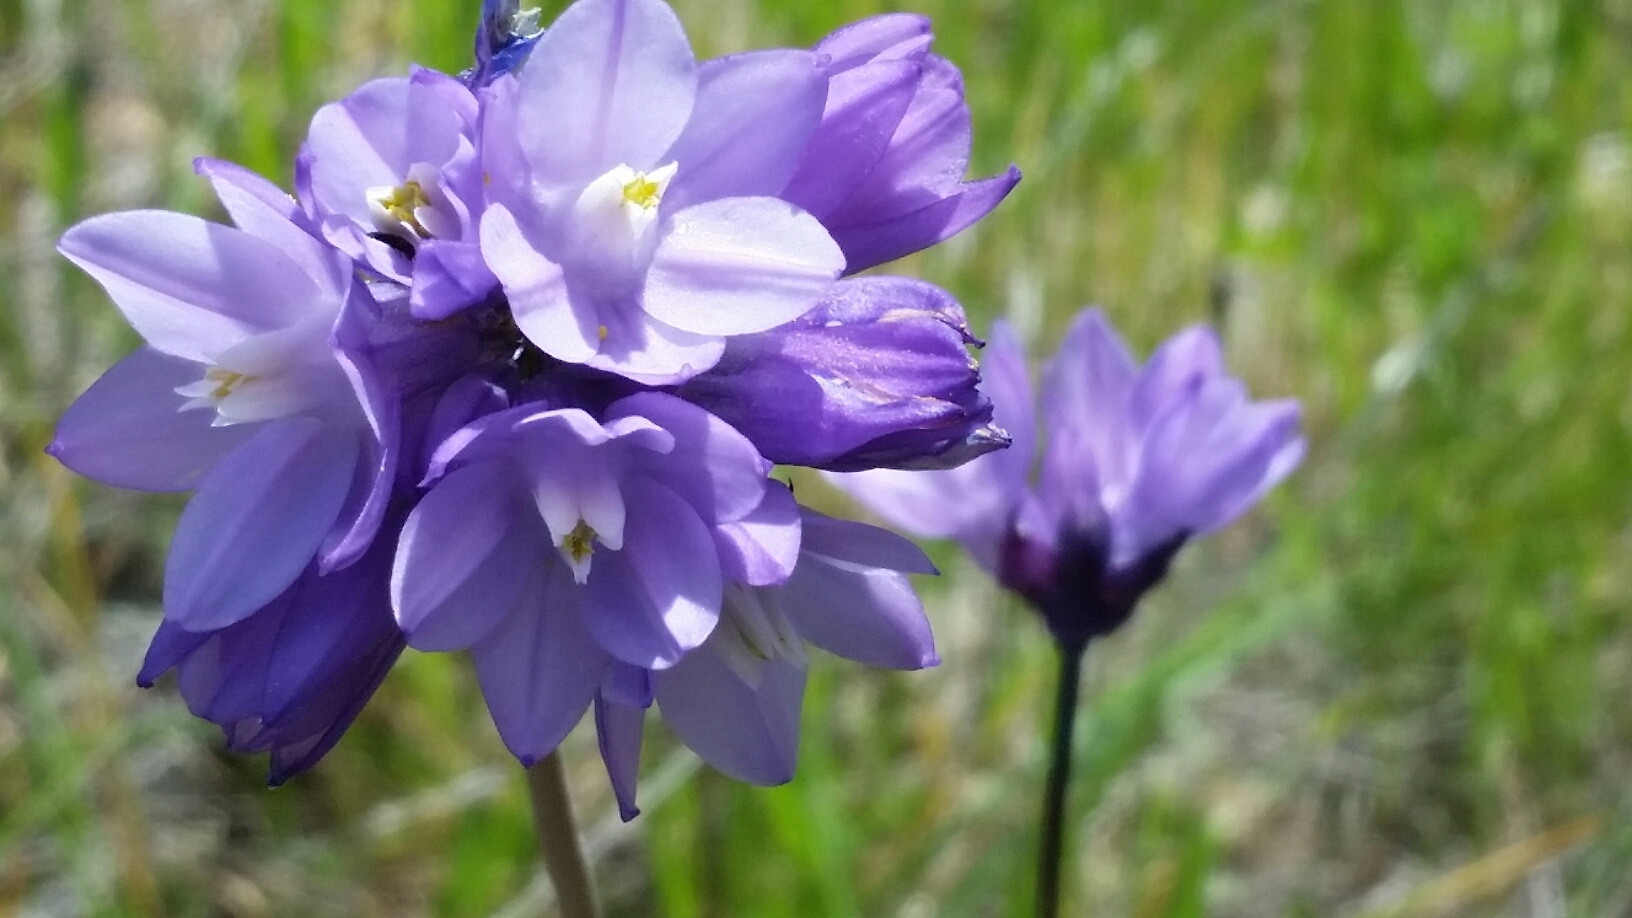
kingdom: Plantae
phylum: Tracheophyta
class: Liliopsida
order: Asparagales
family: Asparagaceae
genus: Dipterostemon
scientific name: Dipterostemon capitatus
